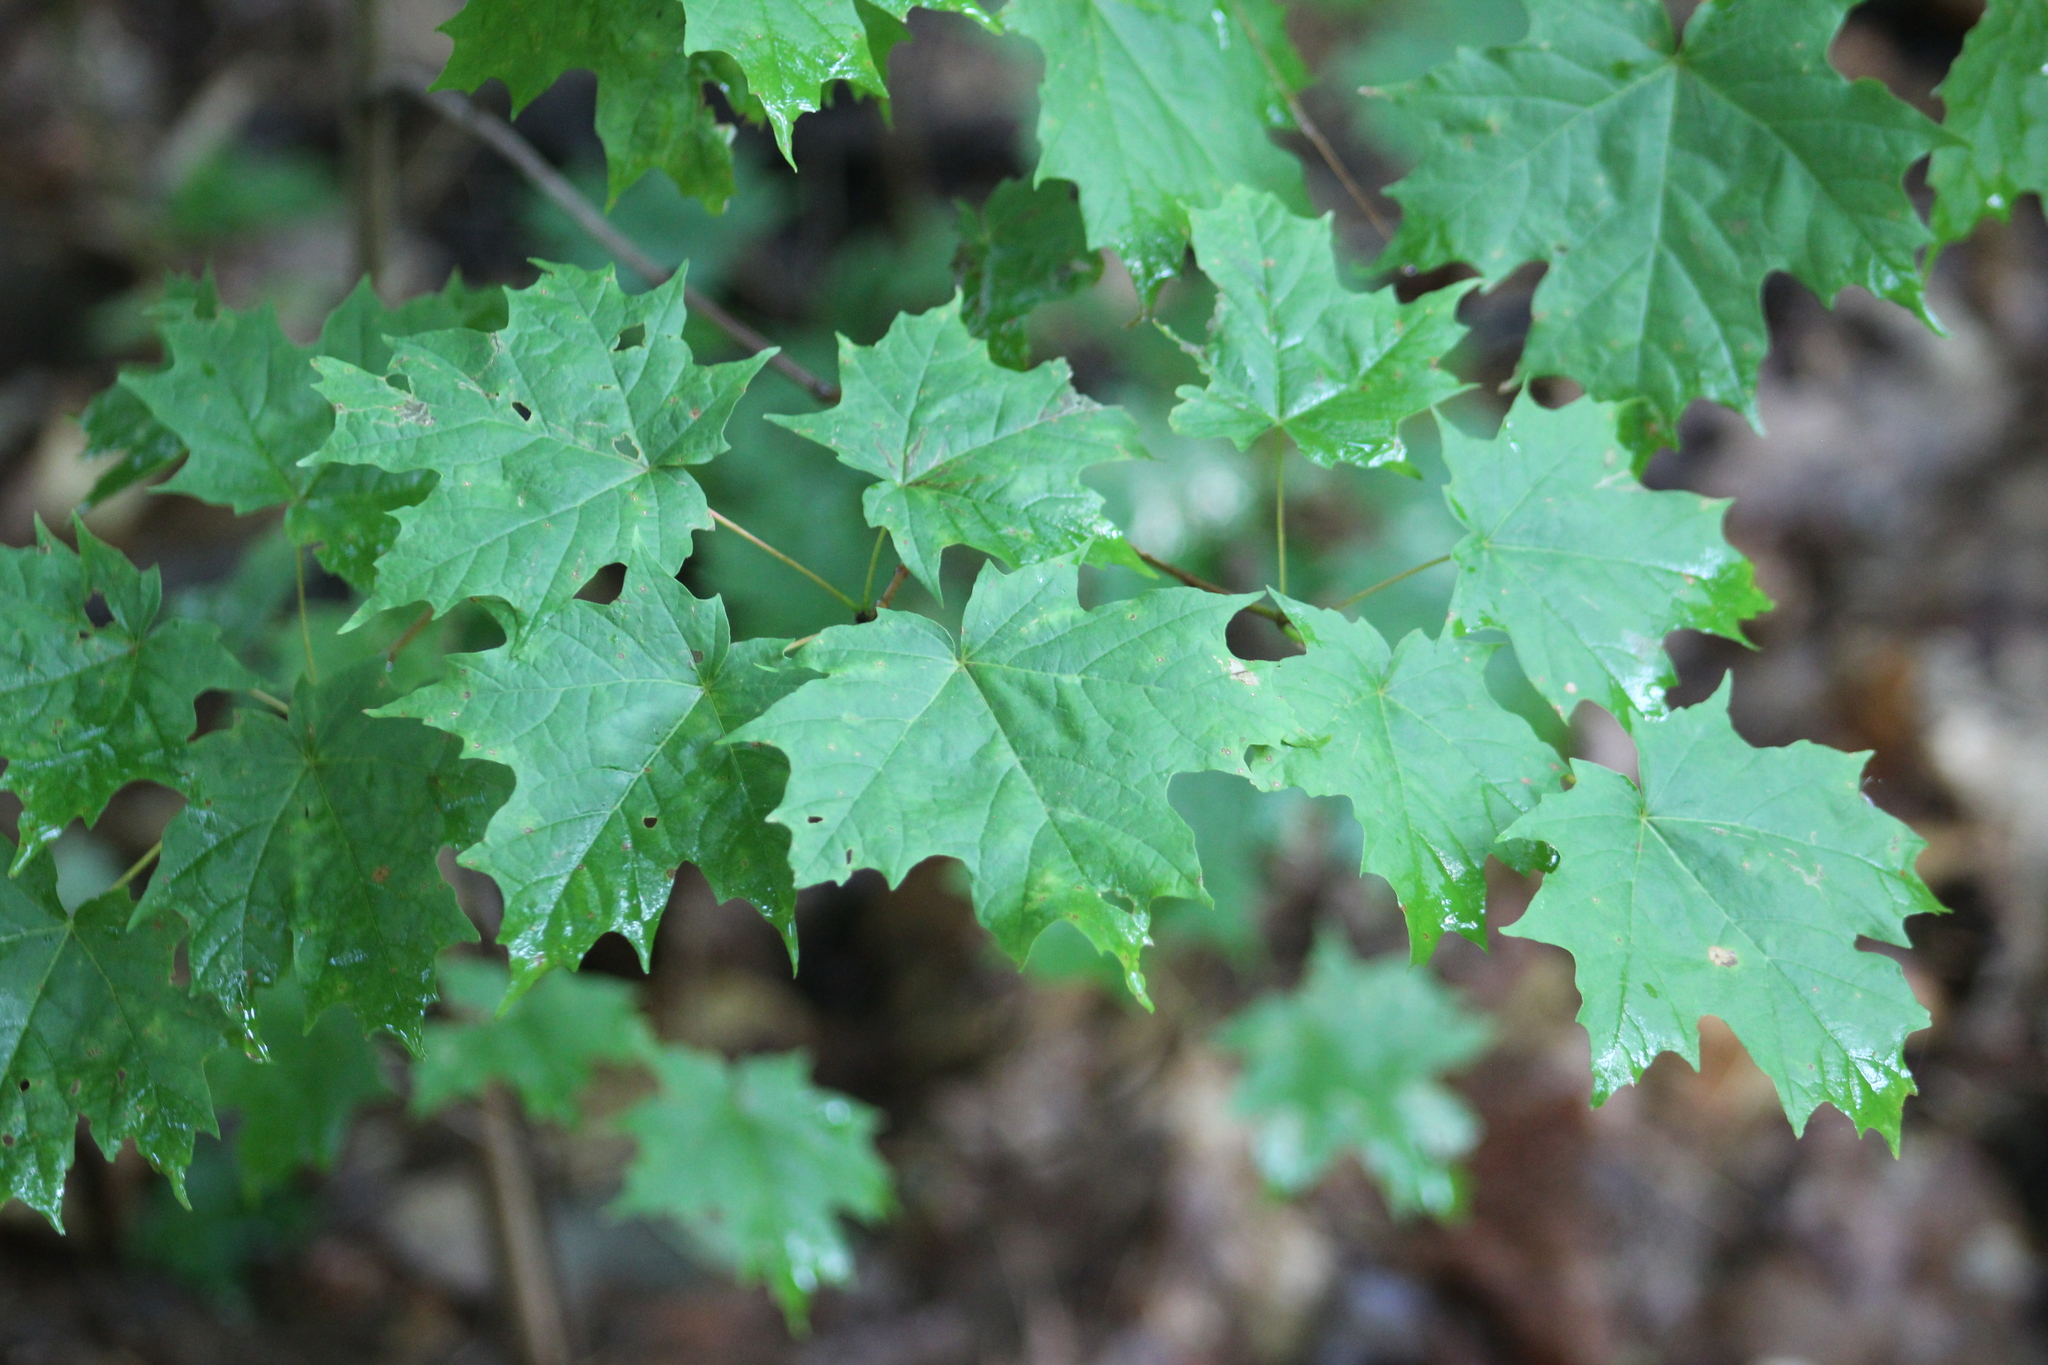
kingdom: Plantae
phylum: Tracheophyta
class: Magnoliopsida
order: Sapindales
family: Sapindaceae
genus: Acer
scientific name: Acer saccharum
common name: Sugar maple
